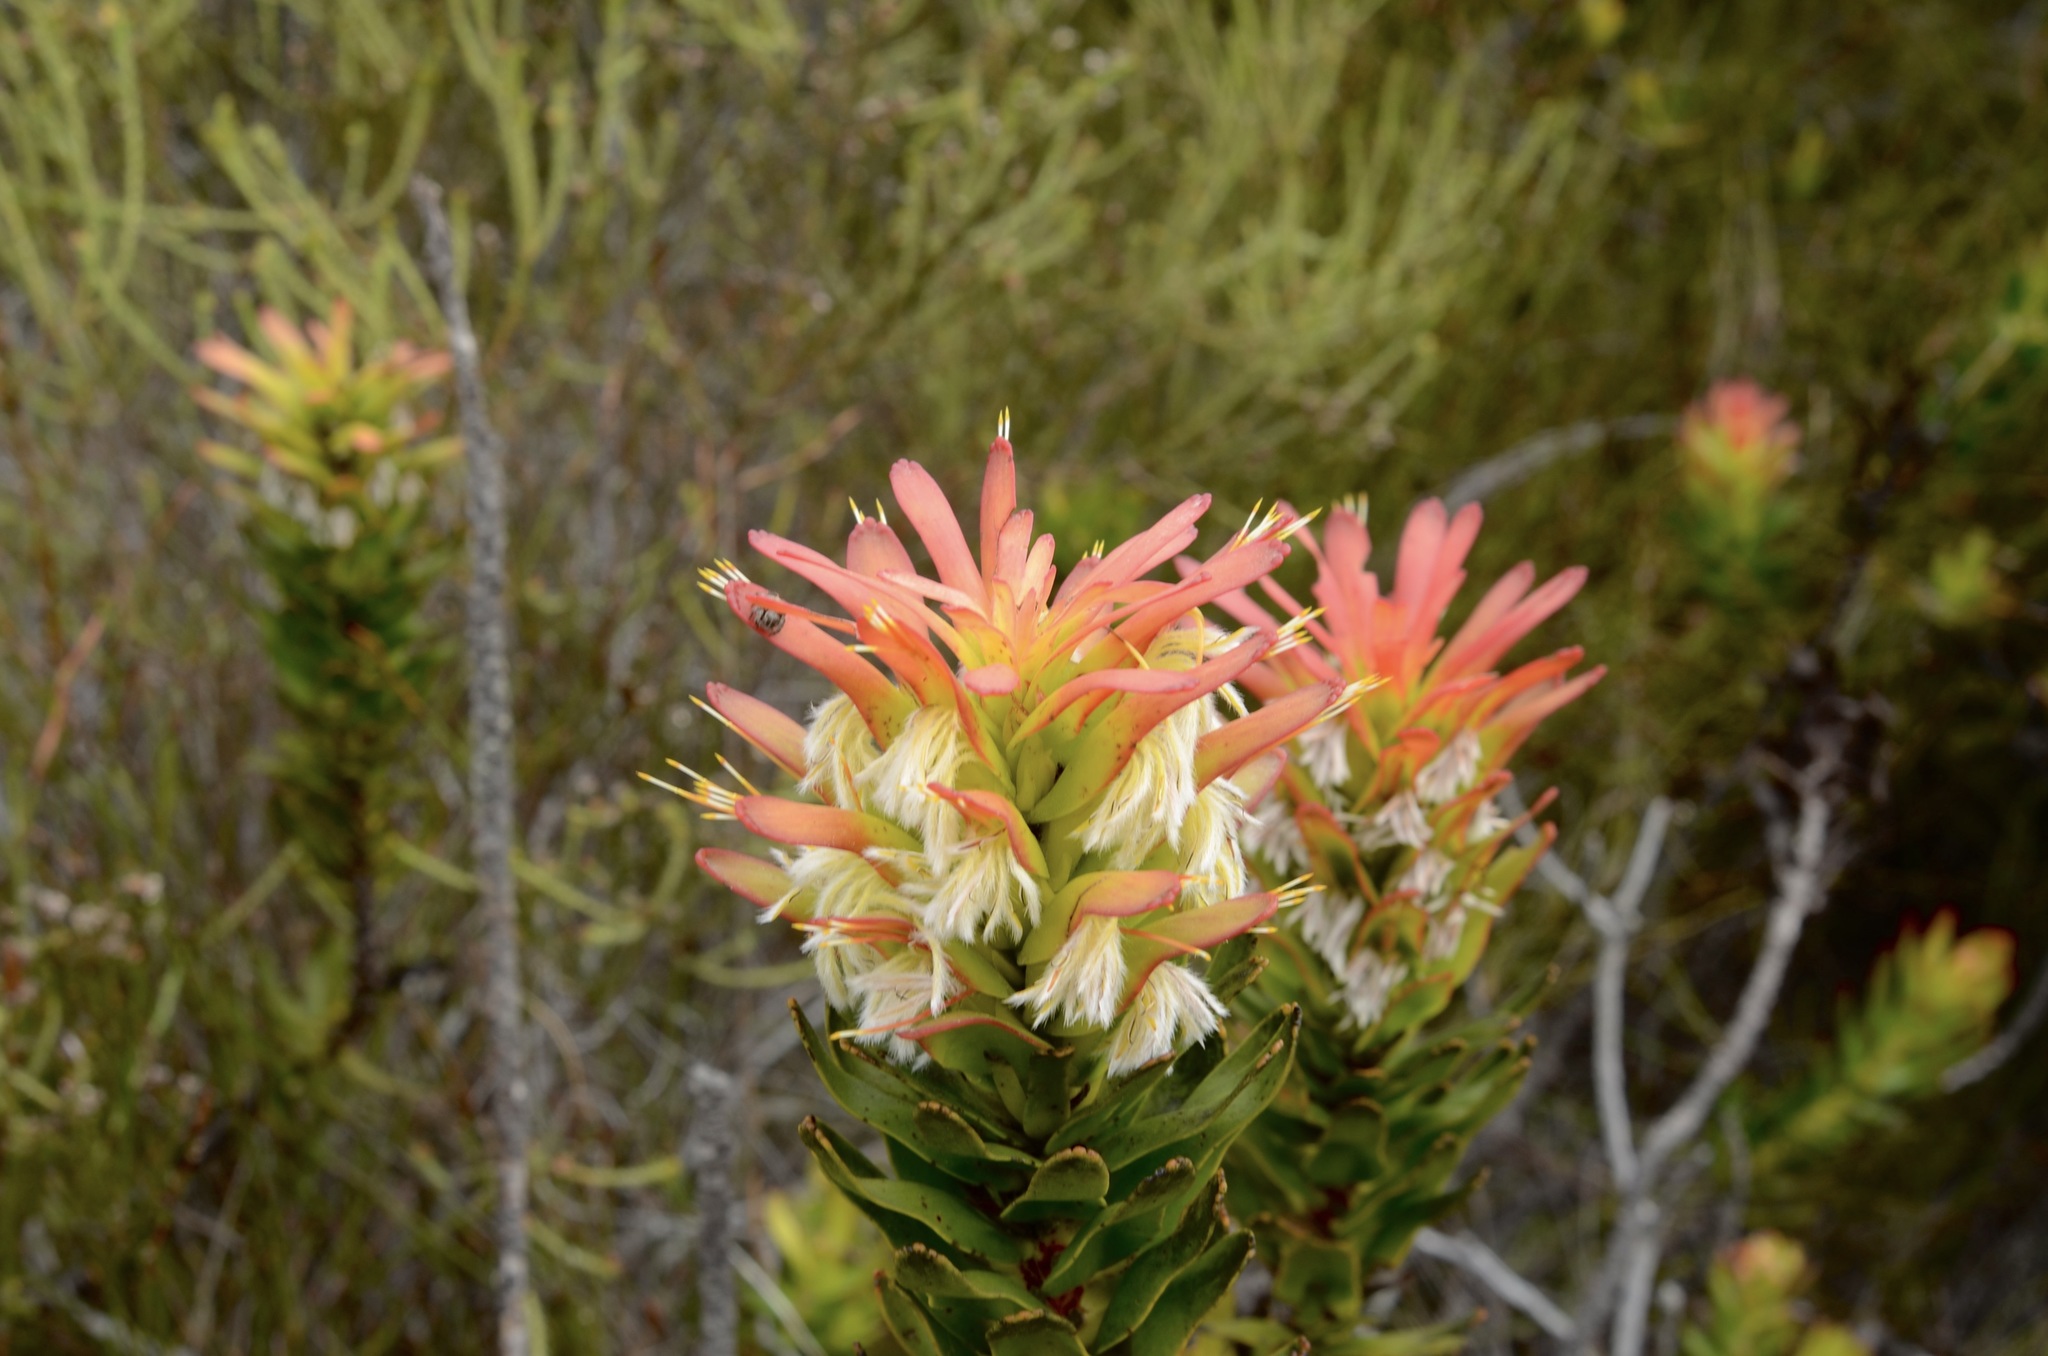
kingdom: Plantae
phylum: Tracheophyta
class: Magnoliopsida
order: Proteales
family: Proteaceae
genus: Mimetes
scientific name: Mimetes cucullatus
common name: Common pagoda
